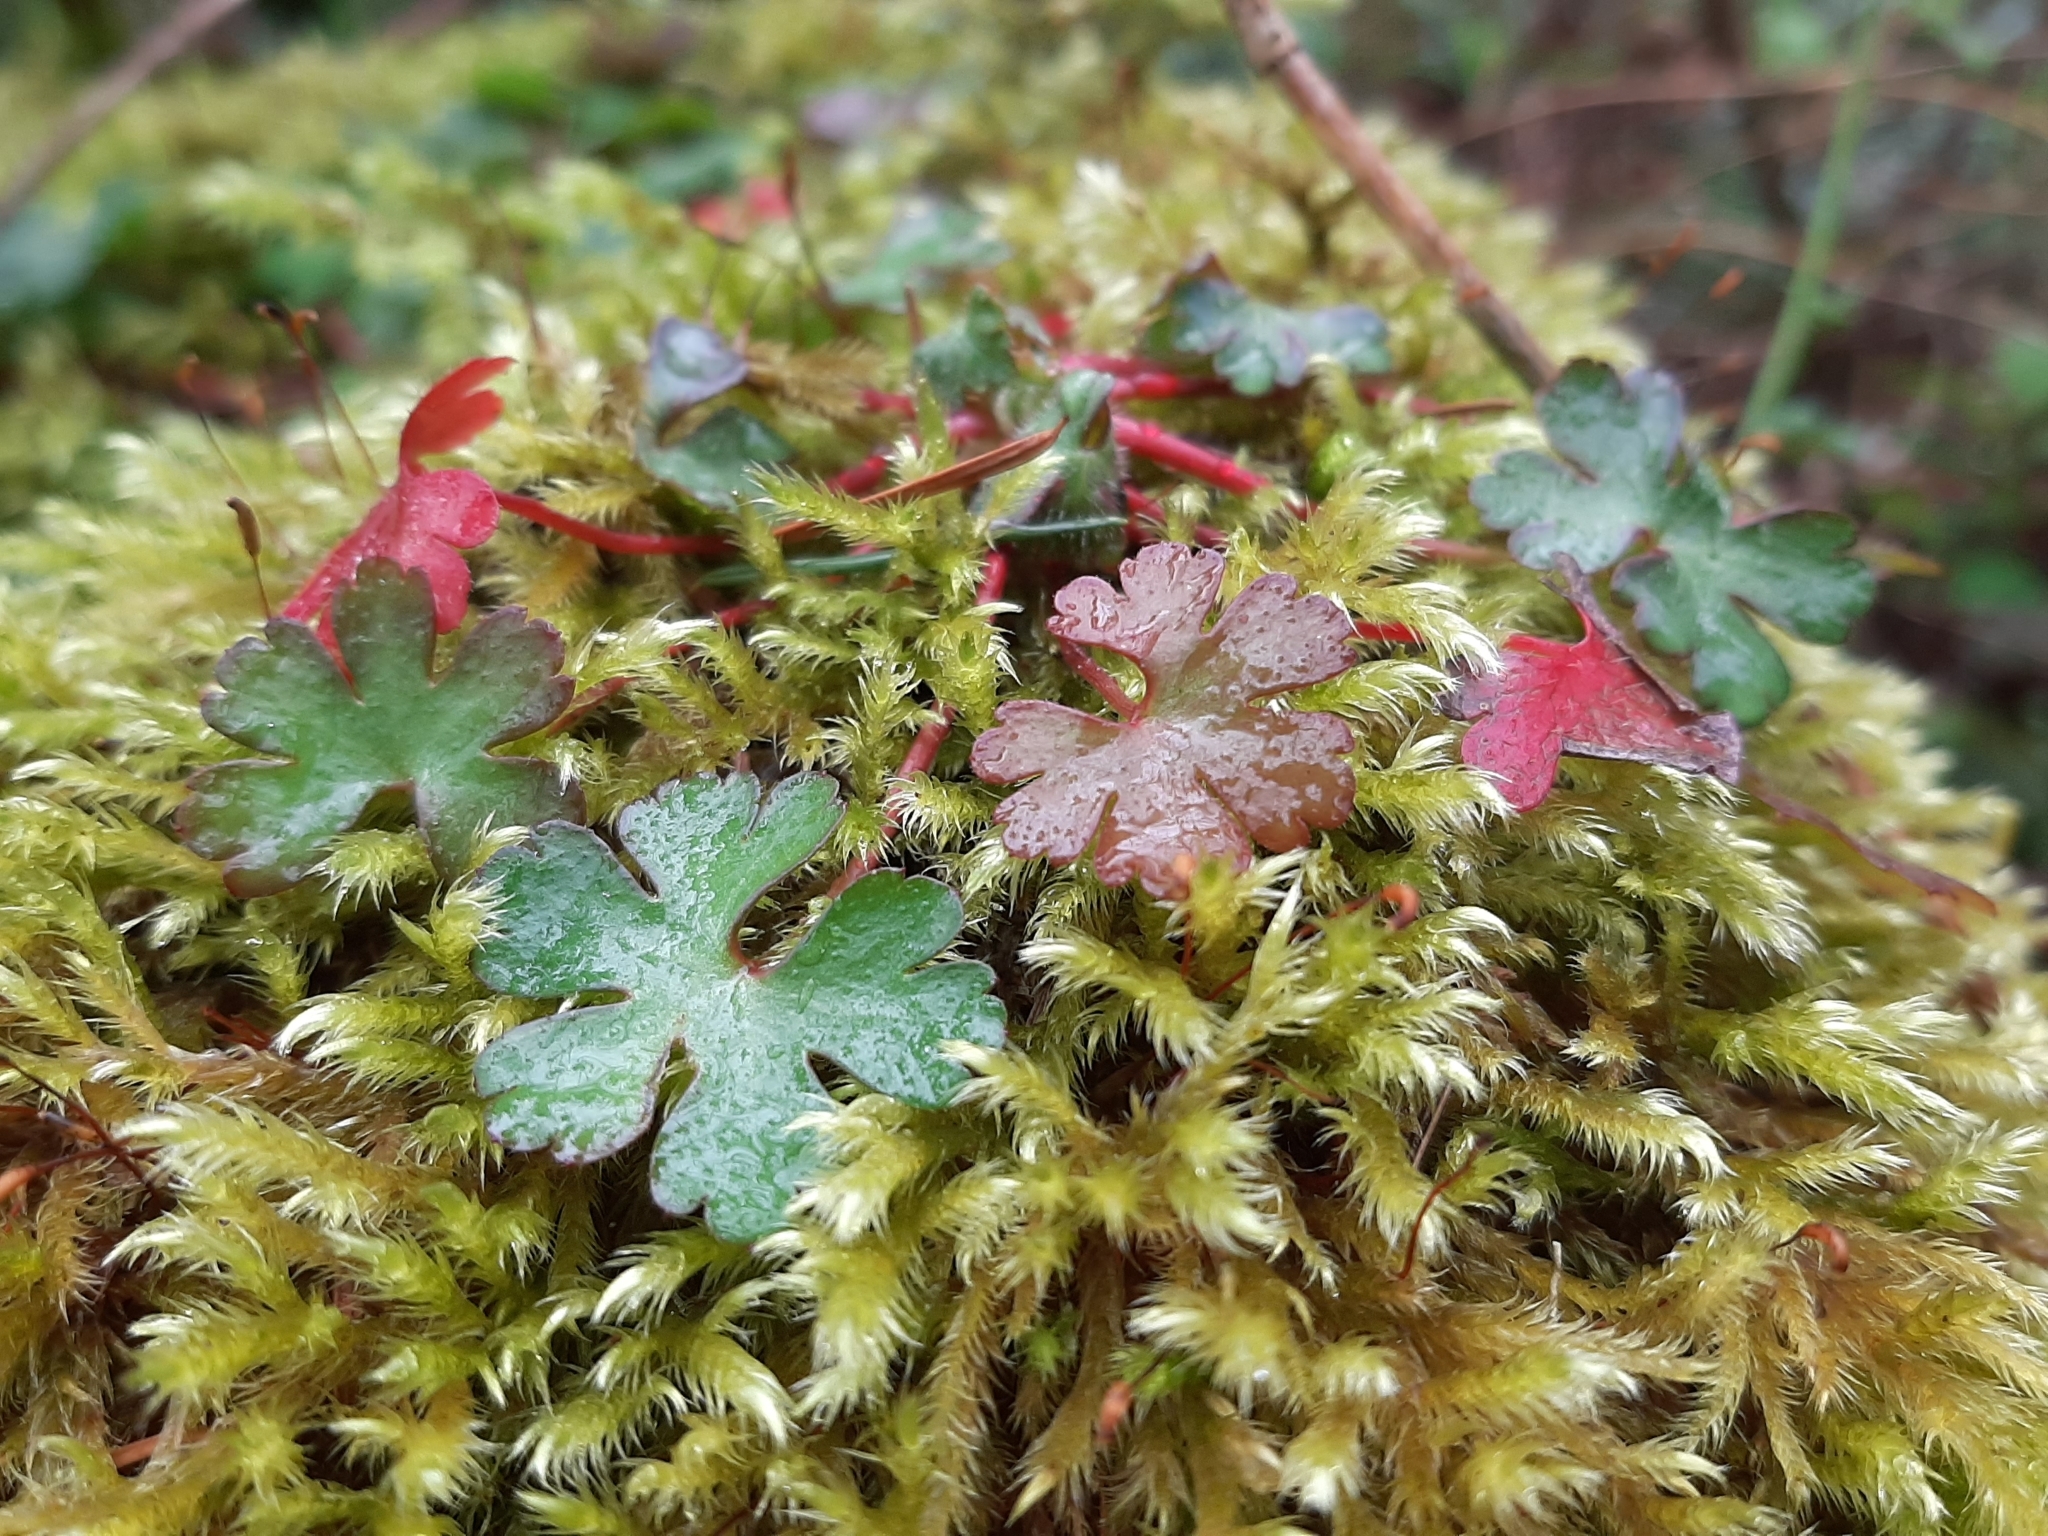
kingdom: Plantae
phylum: Tracheophyta
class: Magnoliopsida
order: Geraniales
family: Geraniaceae
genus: Geranium
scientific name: Geranium lucidum
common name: Shining crane's-bill
